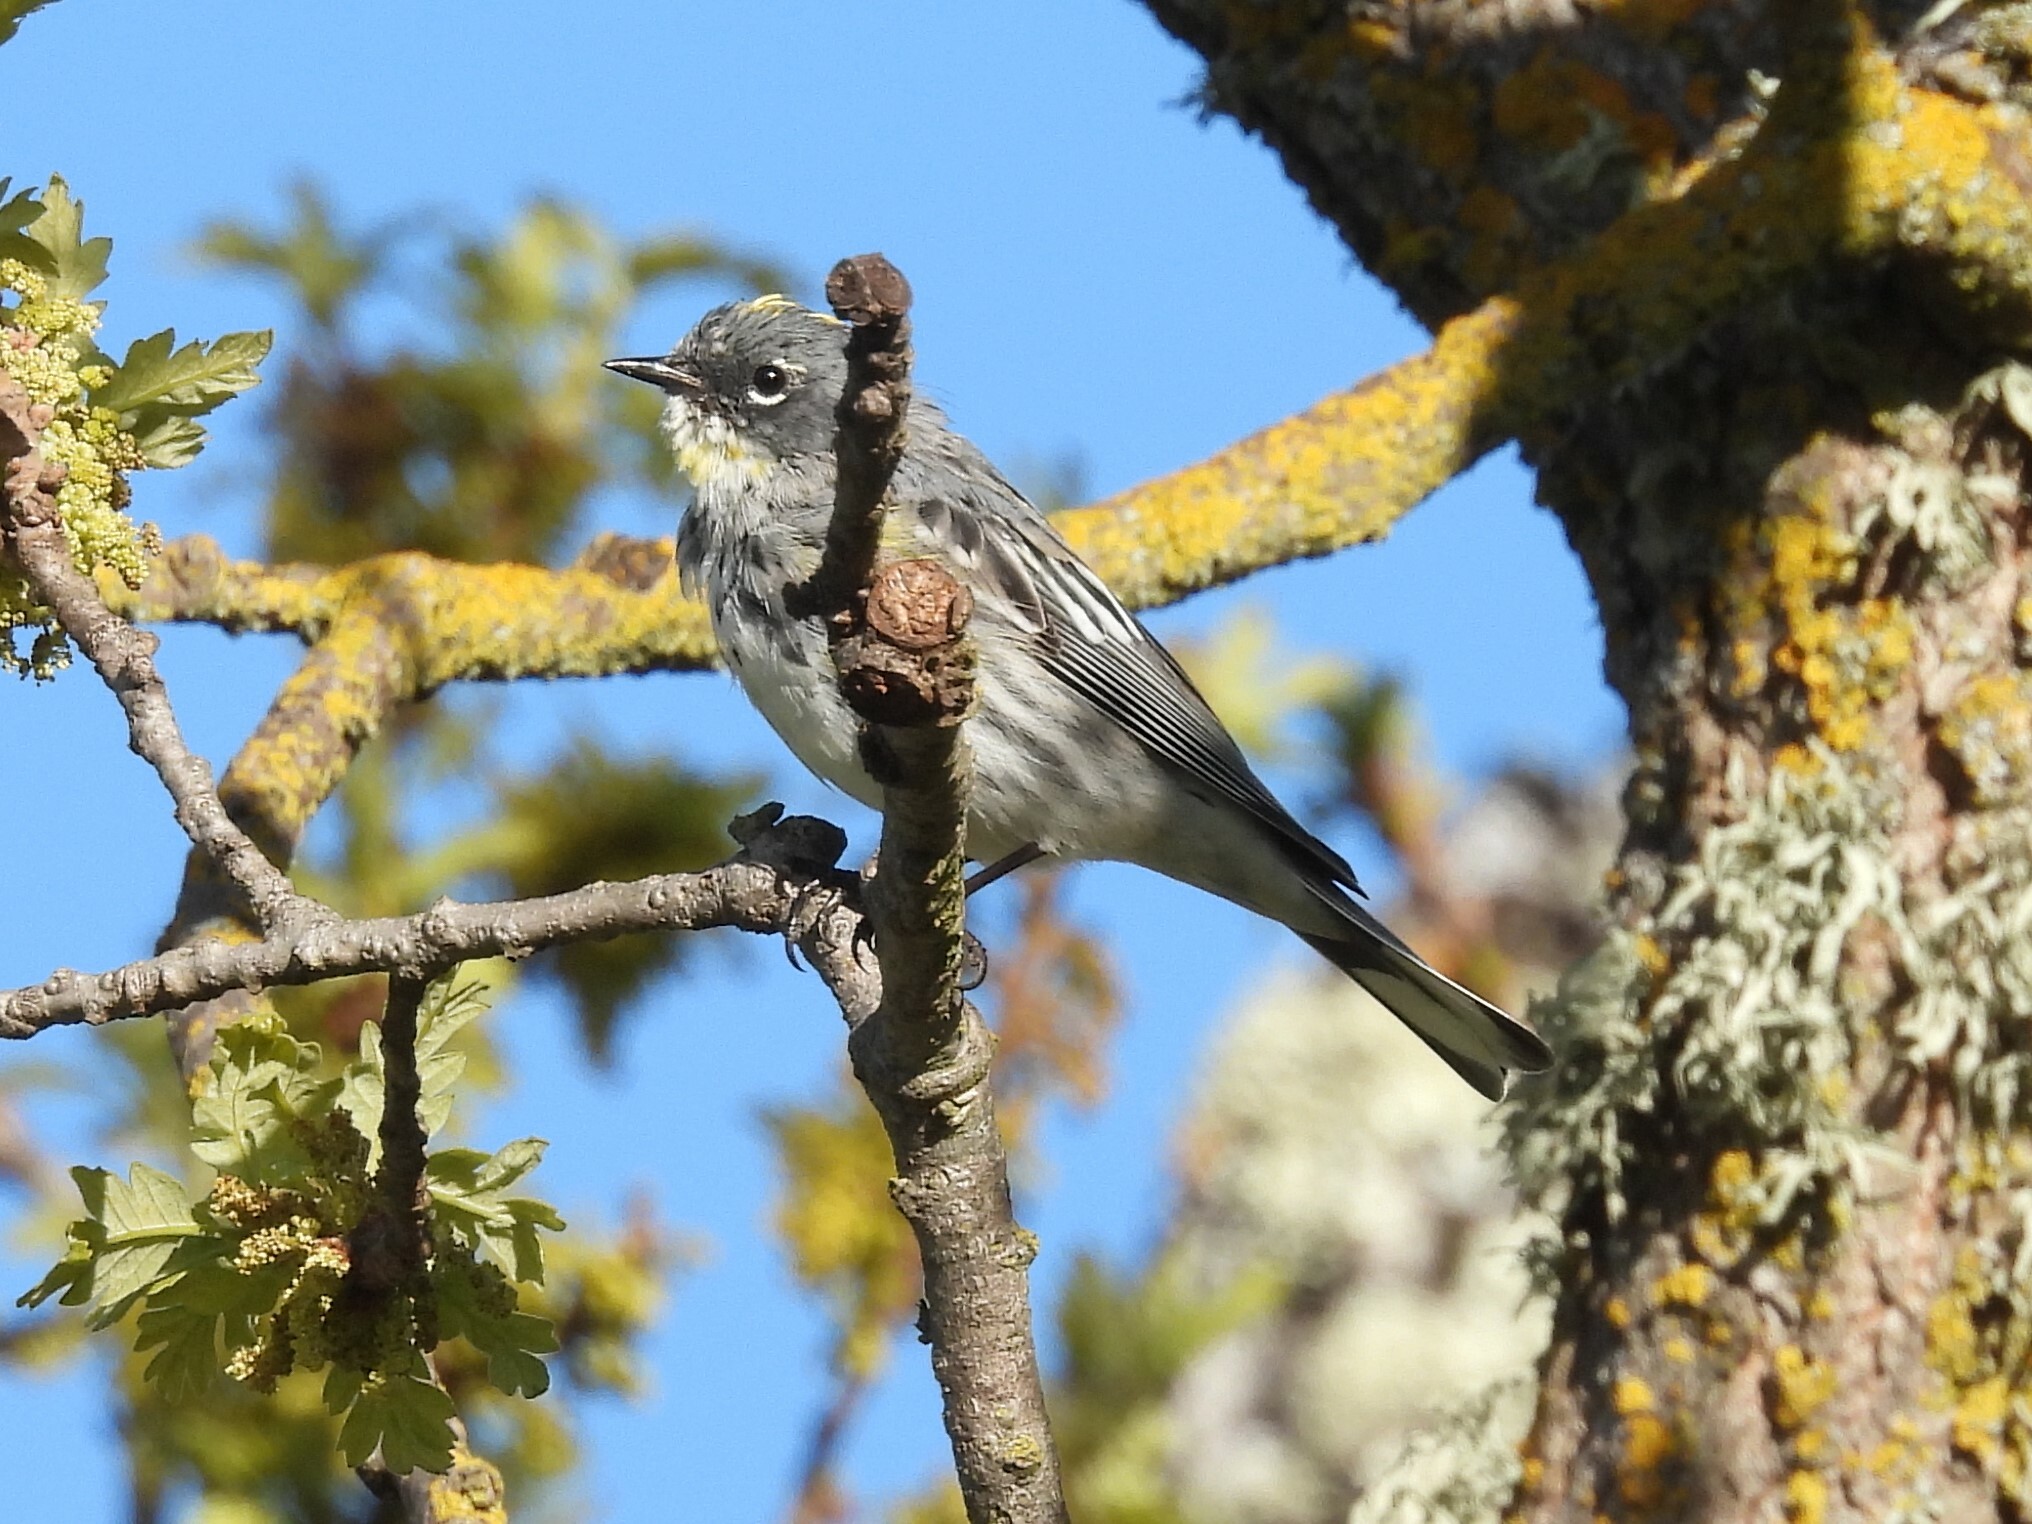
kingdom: Animalia
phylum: Chordata
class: Aves
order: Passeriformes
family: Parulidae
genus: Setophaga
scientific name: Setophaga coronata
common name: Myrtle warbler
